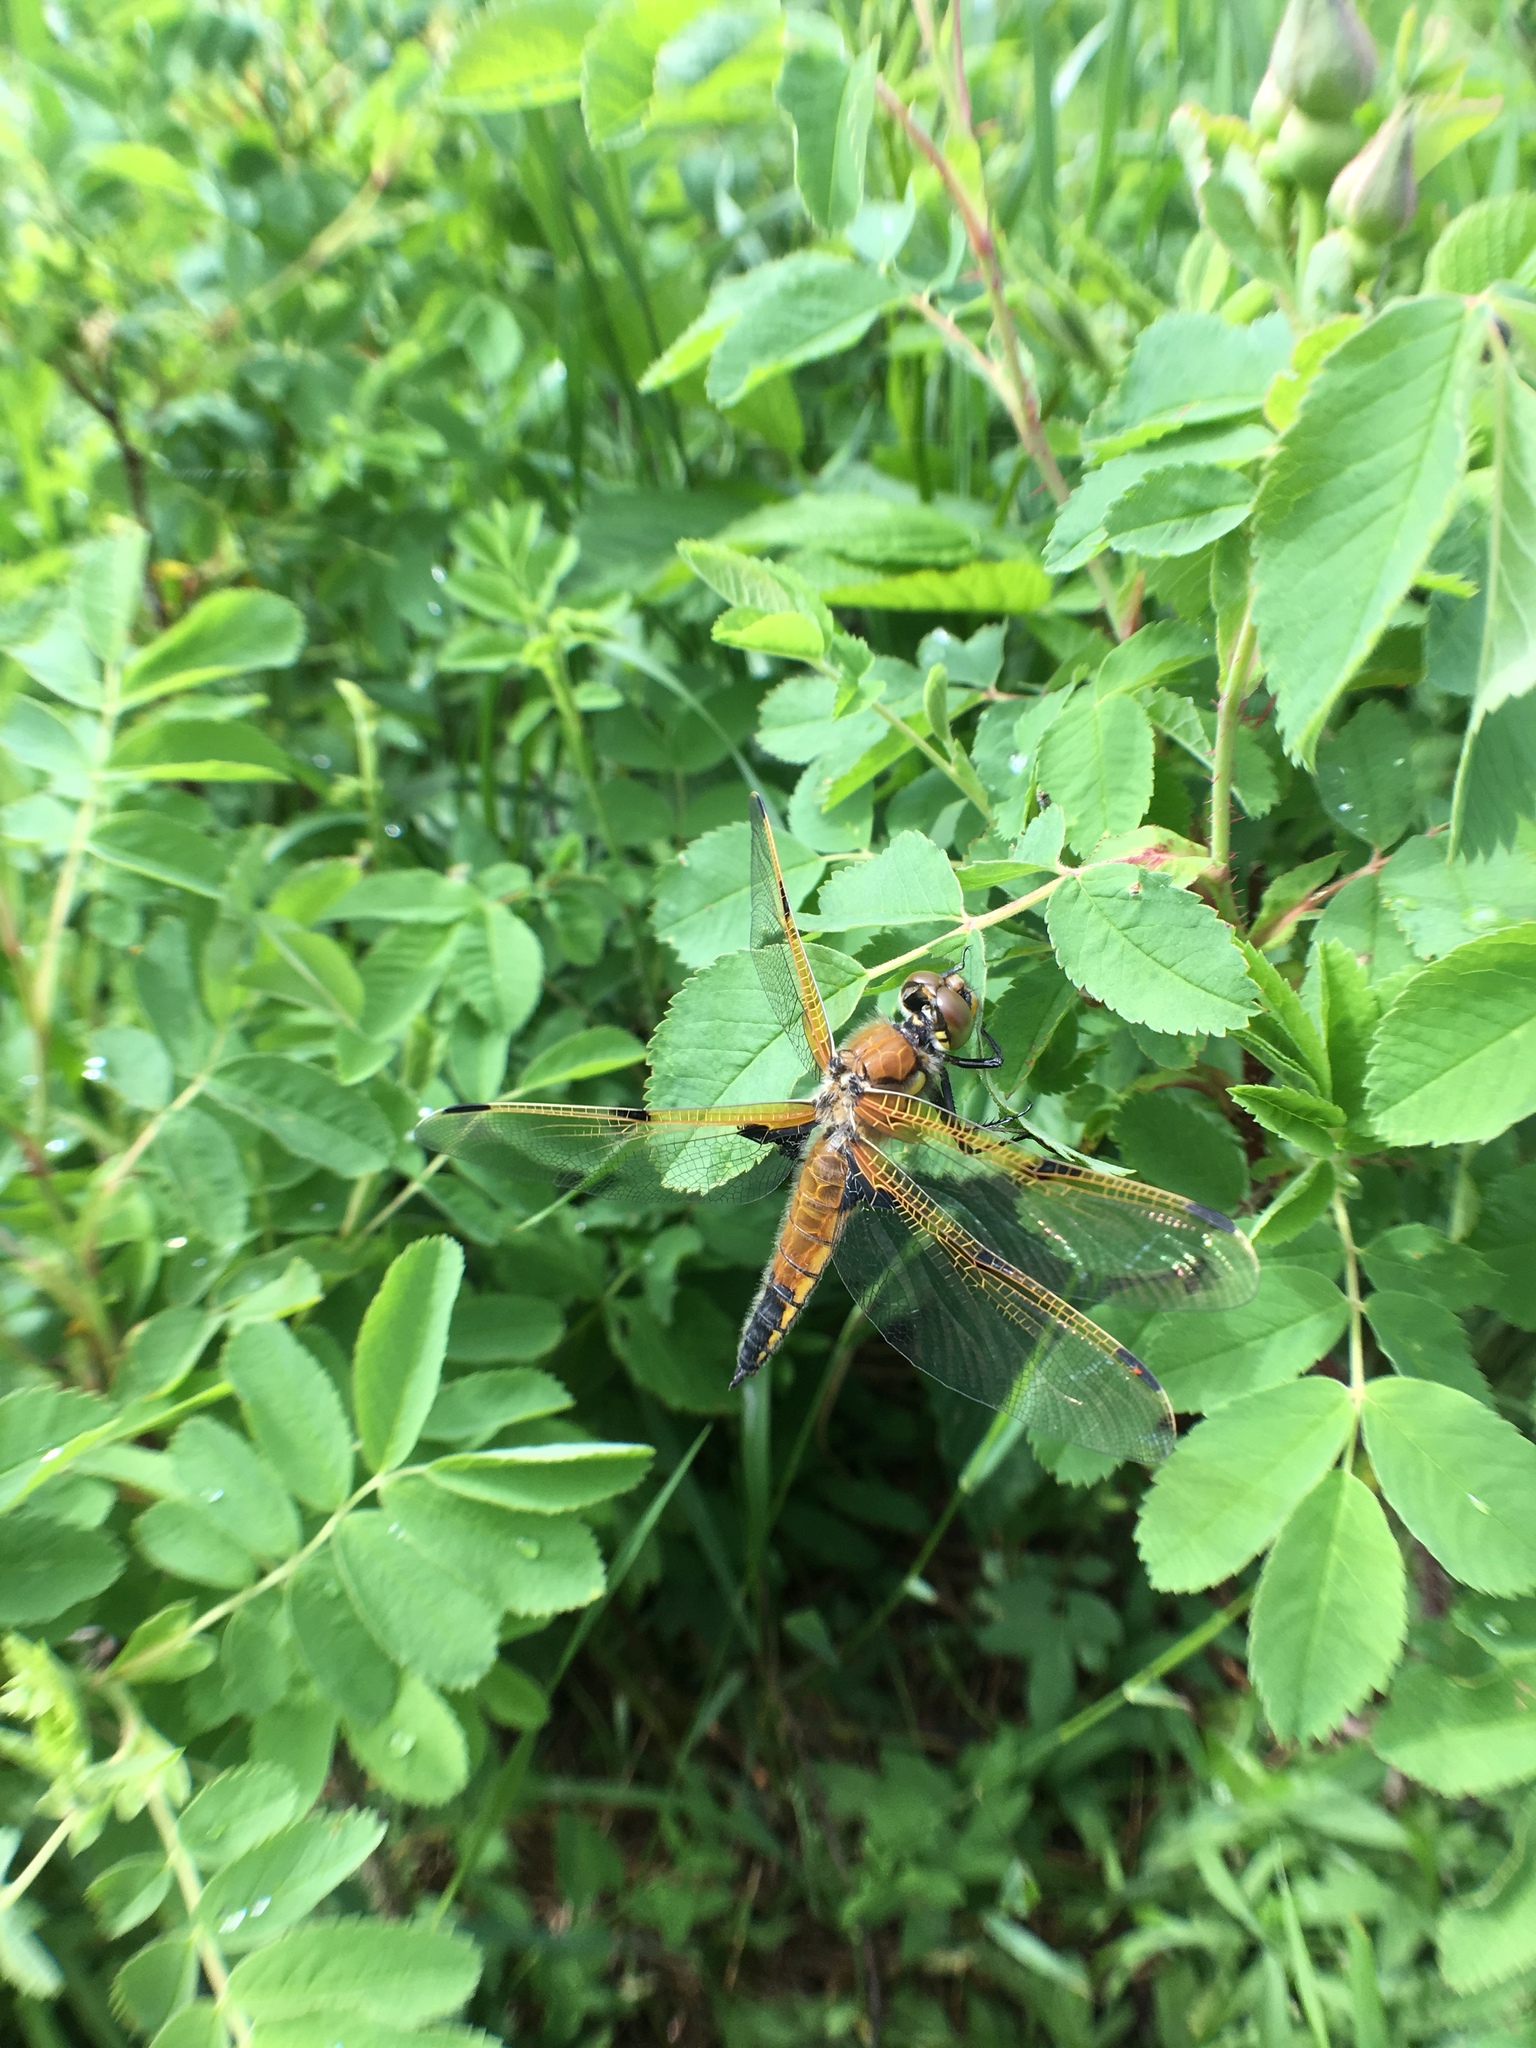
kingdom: Animalia
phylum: Arthropoda
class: Insecta
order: Odonata
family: Libellulidae
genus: Libellula
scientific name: Libellula quadrimaculata
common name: Four-spotted chaser
